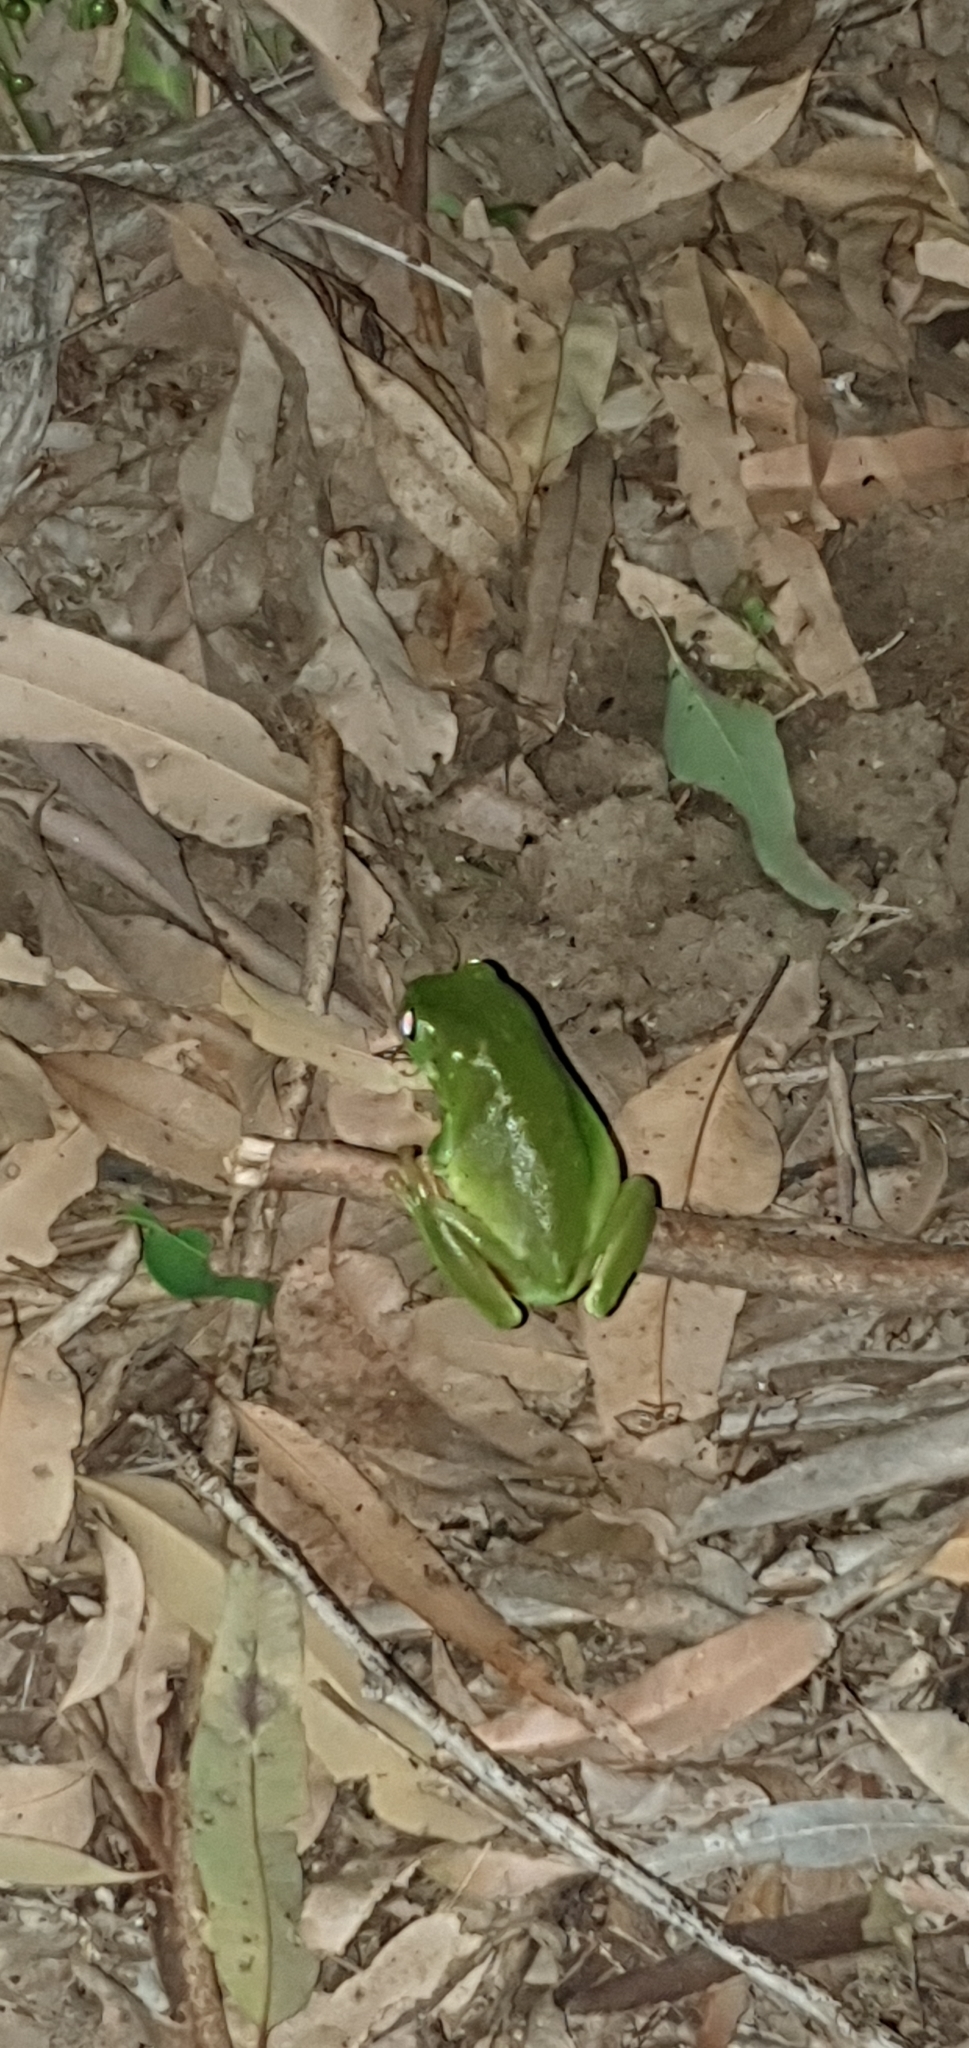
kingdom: Animalia
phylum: Chordata
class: Amphibia
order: Anura
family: Pelodryadidae
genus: Ranoidea
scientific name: Ranoidea caerulea
